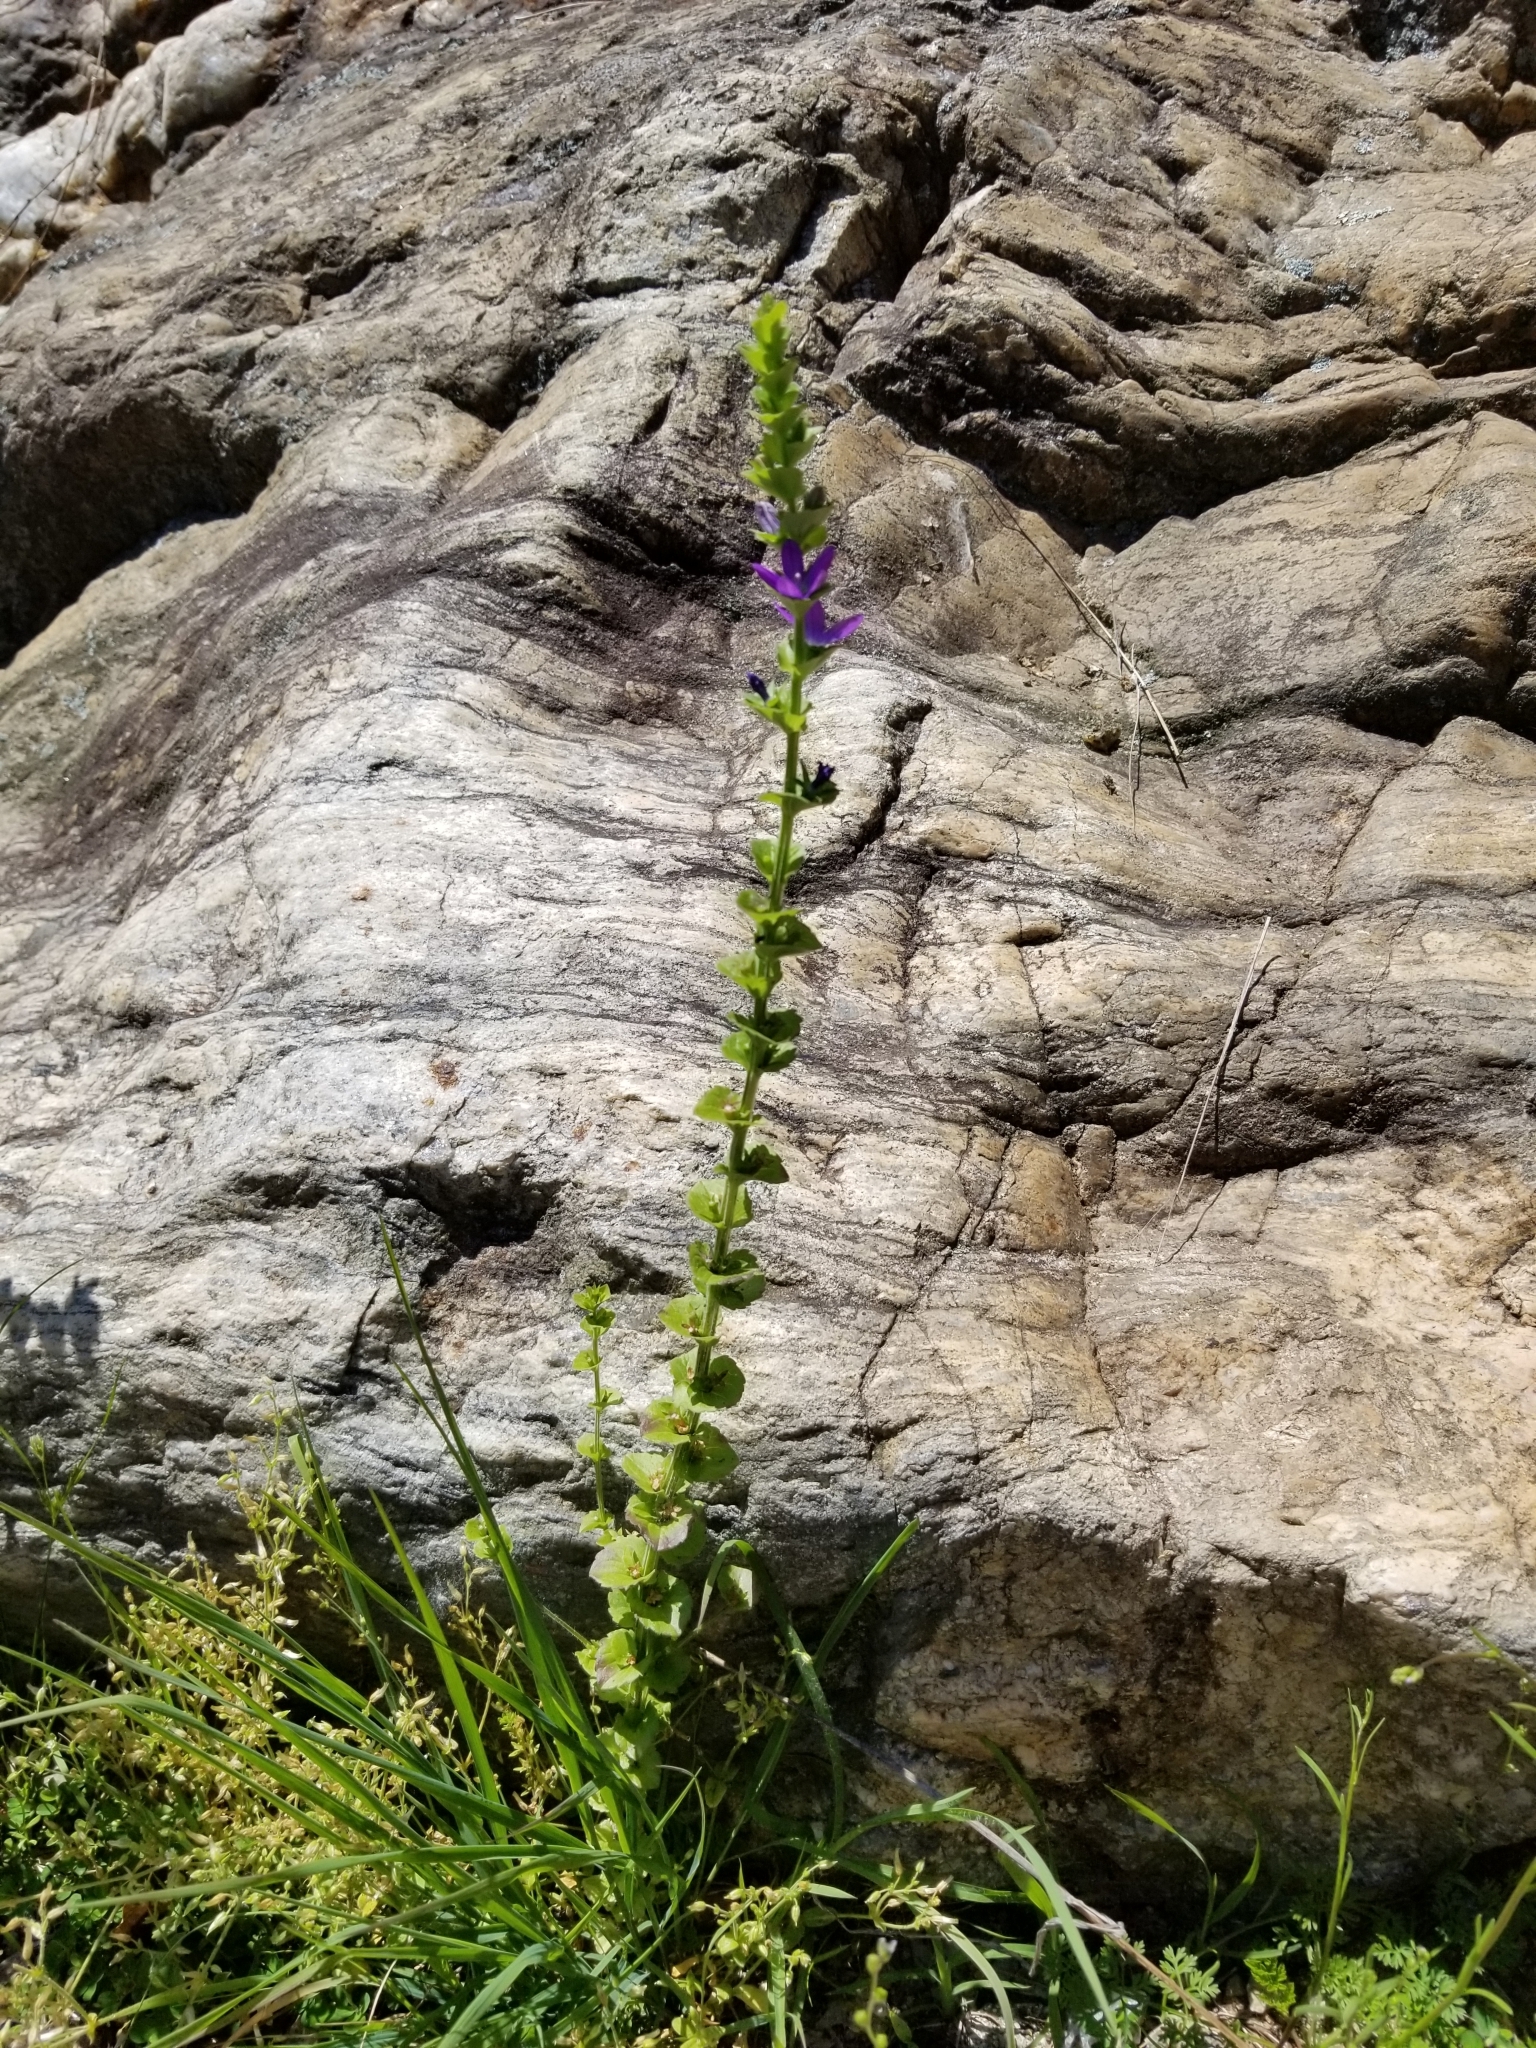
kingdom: Plantae
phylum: Tracheophyta
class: Magnoliopsida
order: Asterales
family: Campanulaceae
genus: Triodanis
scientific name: Triodanis perfoliata
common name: Clasping venus' looking-glass
